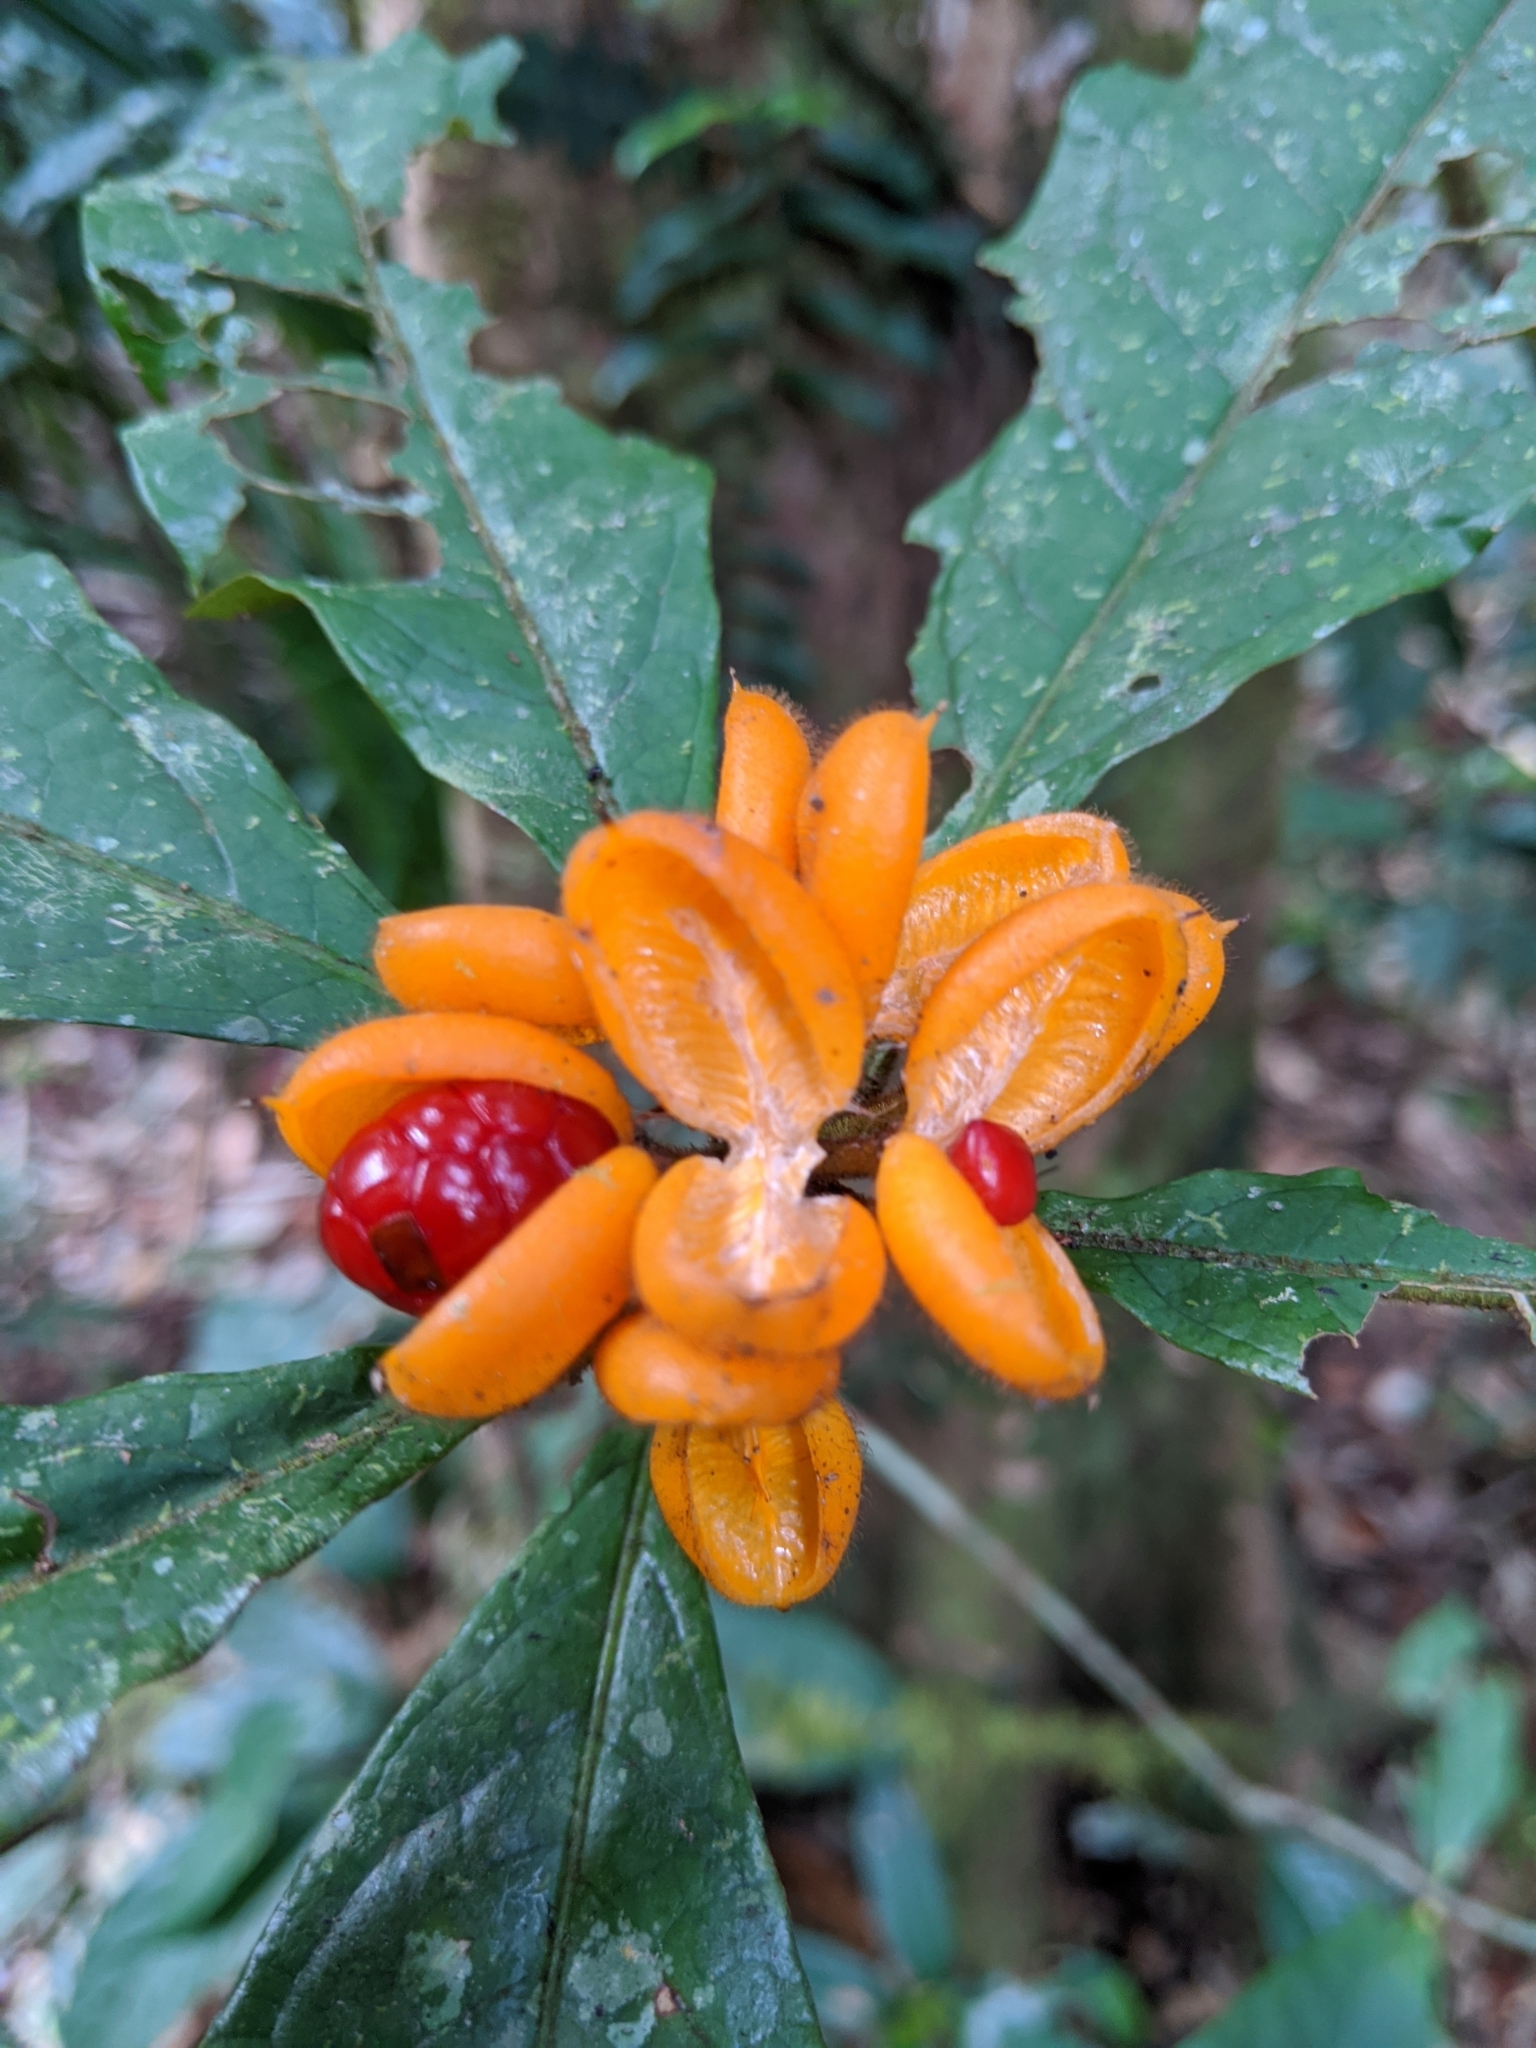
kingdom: Plantae
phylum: Tracheophyta
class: Magnoliopsida
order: Apiales
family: Pittosporaceae
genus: Pittosporum
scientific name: Pittosporum rubiginosum
